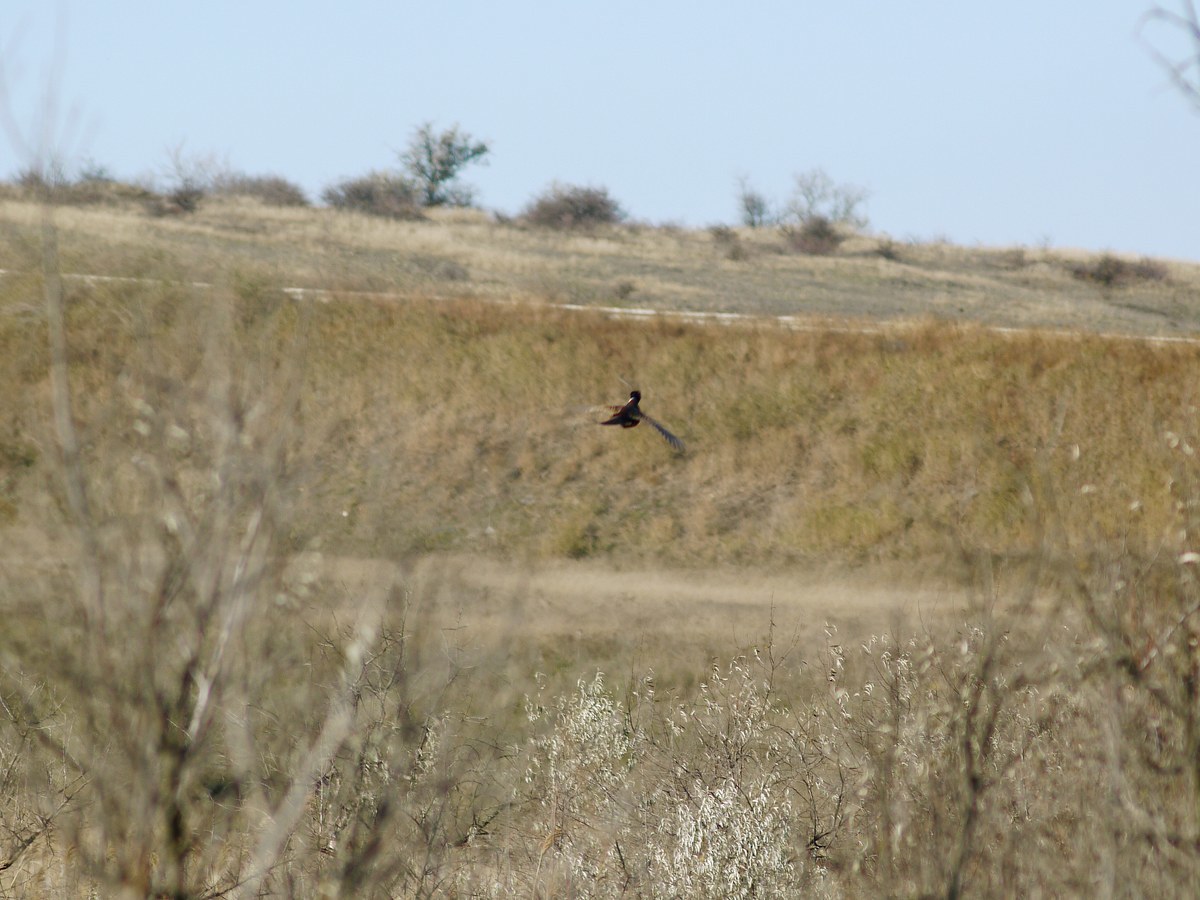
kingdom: Animalia
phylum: Chordata
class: Aves
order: Galliformes
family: Phasianidae
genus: Phasianus
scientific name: Phasianus colchicus
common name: Common pheasant
